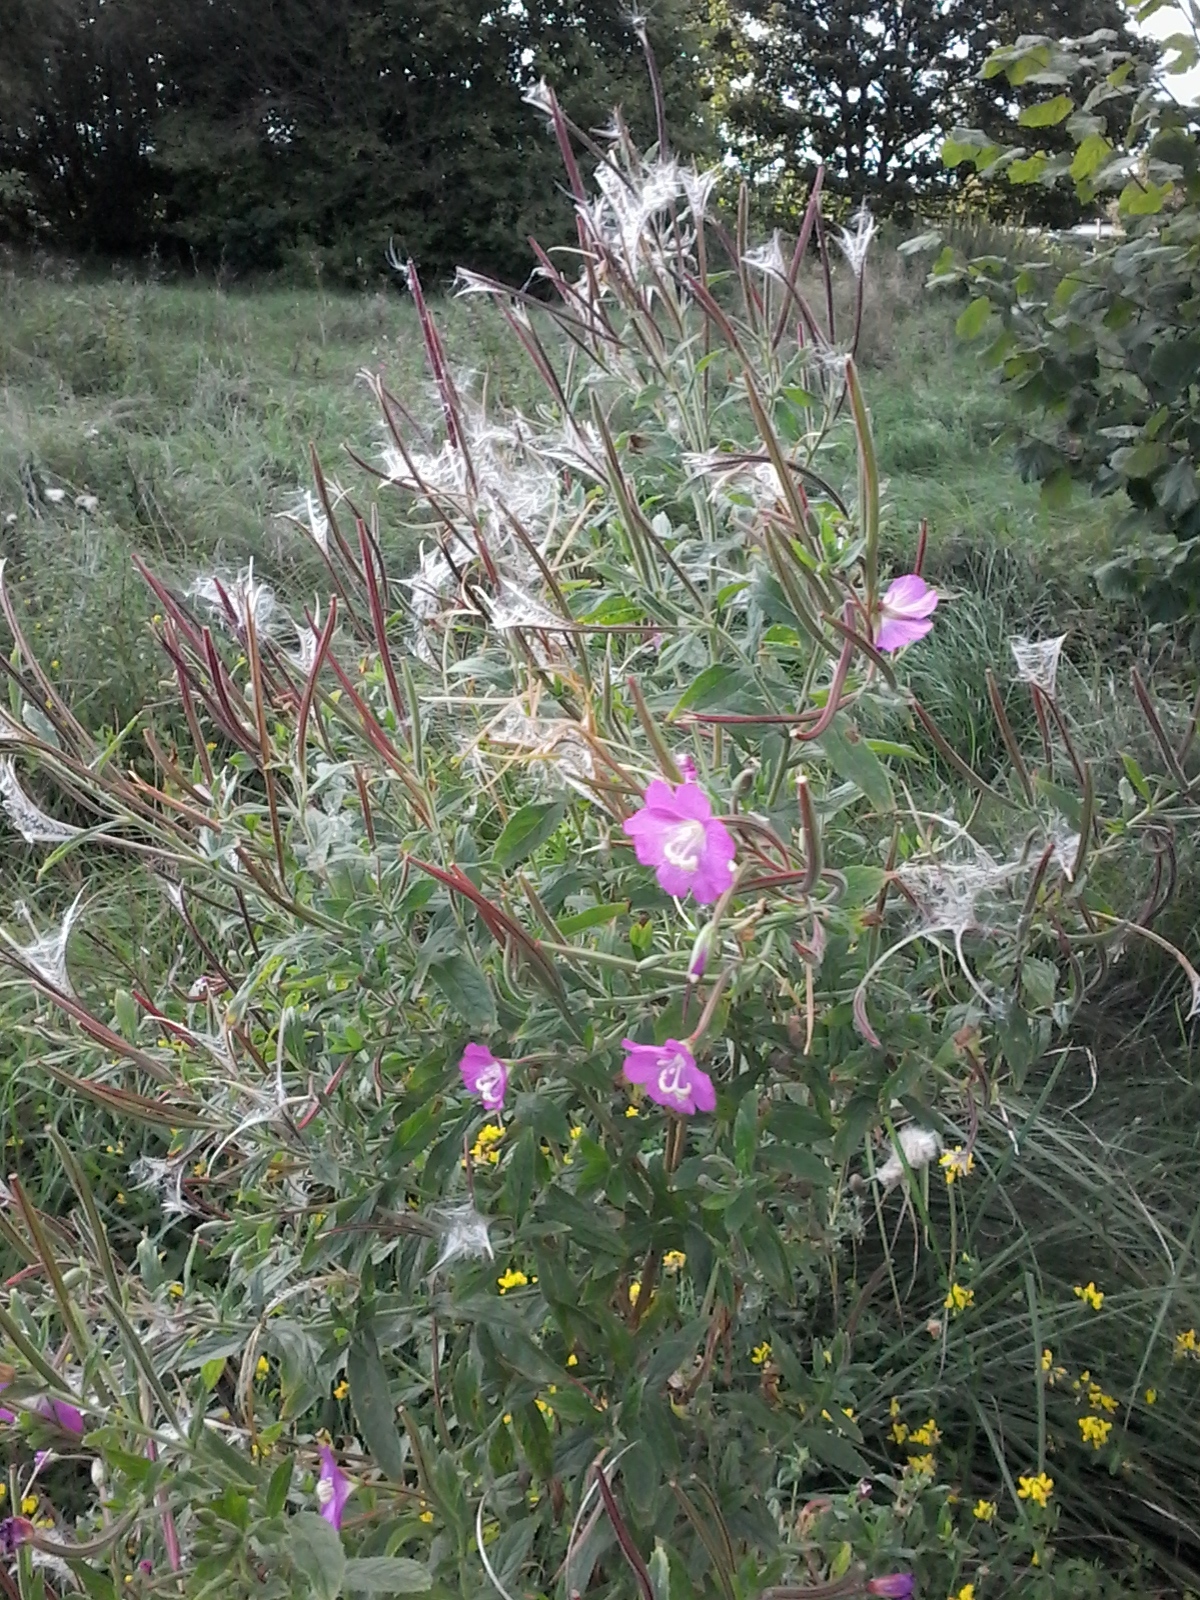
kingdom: Plantae
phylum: Tracheophyta
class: Magnoliopsida
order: Myrtales
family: Onagraceae
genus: Epilobium
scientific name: Epilobium hirsutum
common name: Great willowherb
